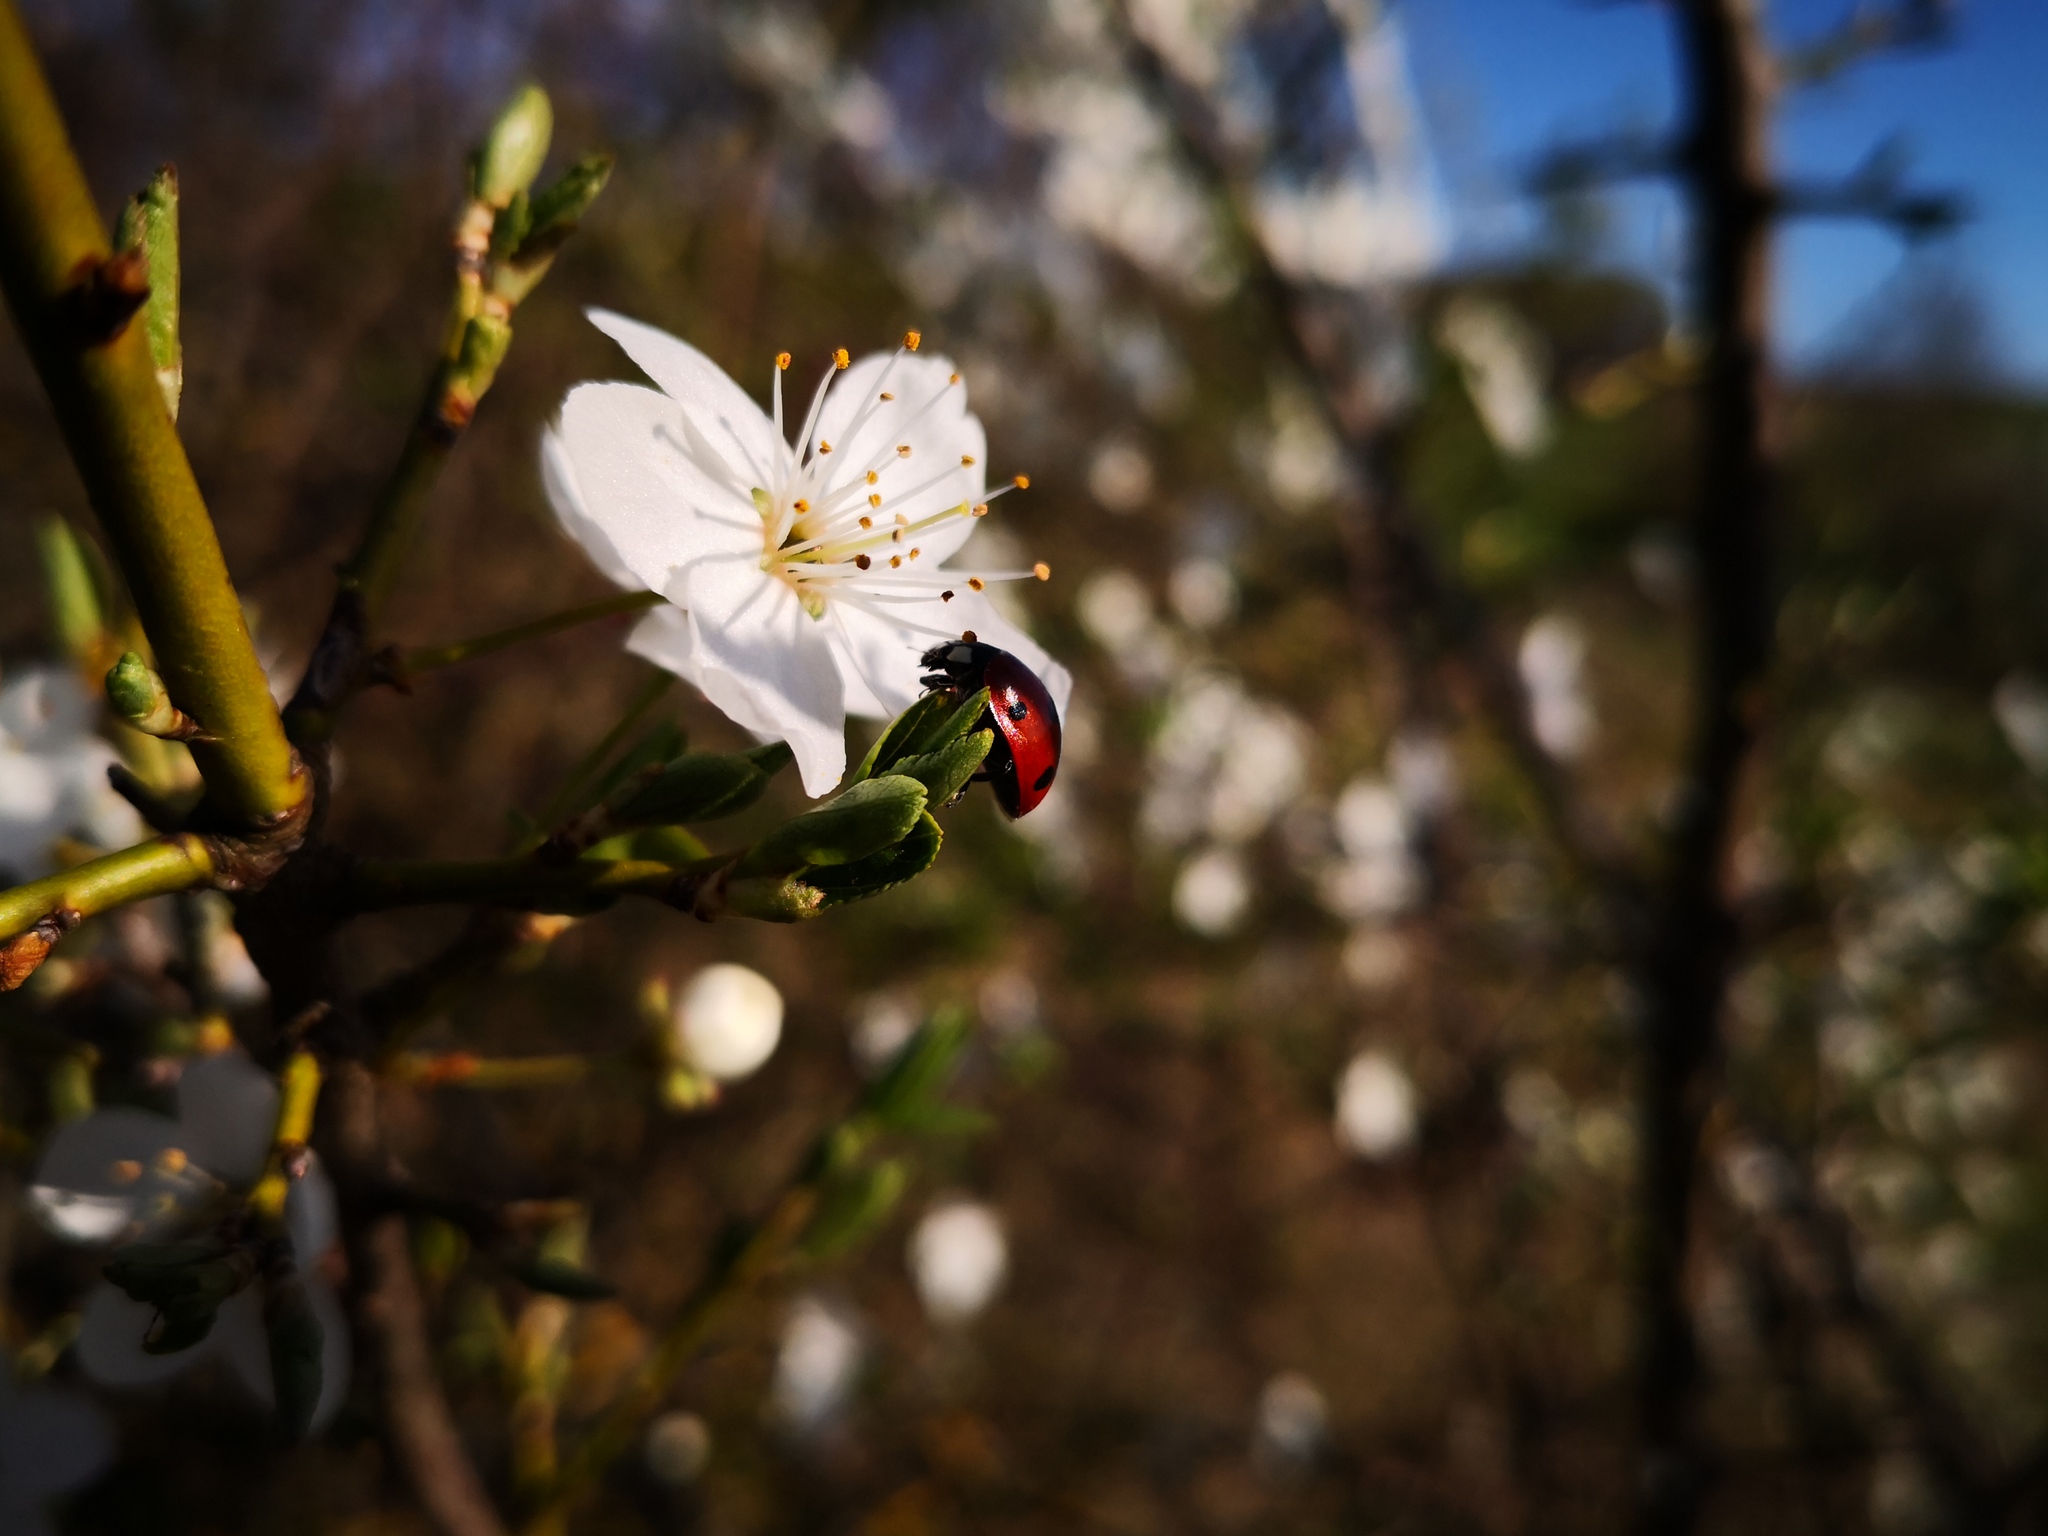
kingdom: Animalia
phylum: Arthropoda
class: Insecta
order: Coleoptera
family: Coccinellidae
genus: Coccinella
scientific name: Coccinella septempunctata
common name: Sevenspotted lady beetle
